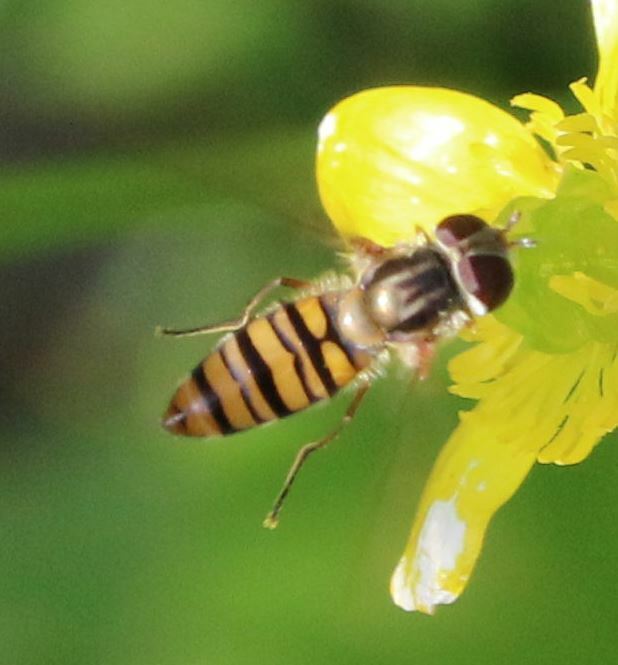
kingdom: Animalia
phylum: Arthropoda
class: Insecta
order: Diptera
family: Syrphidae
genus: Episyrphus
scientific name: Episyrphus balteatus
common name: Marmalade hoverfly
